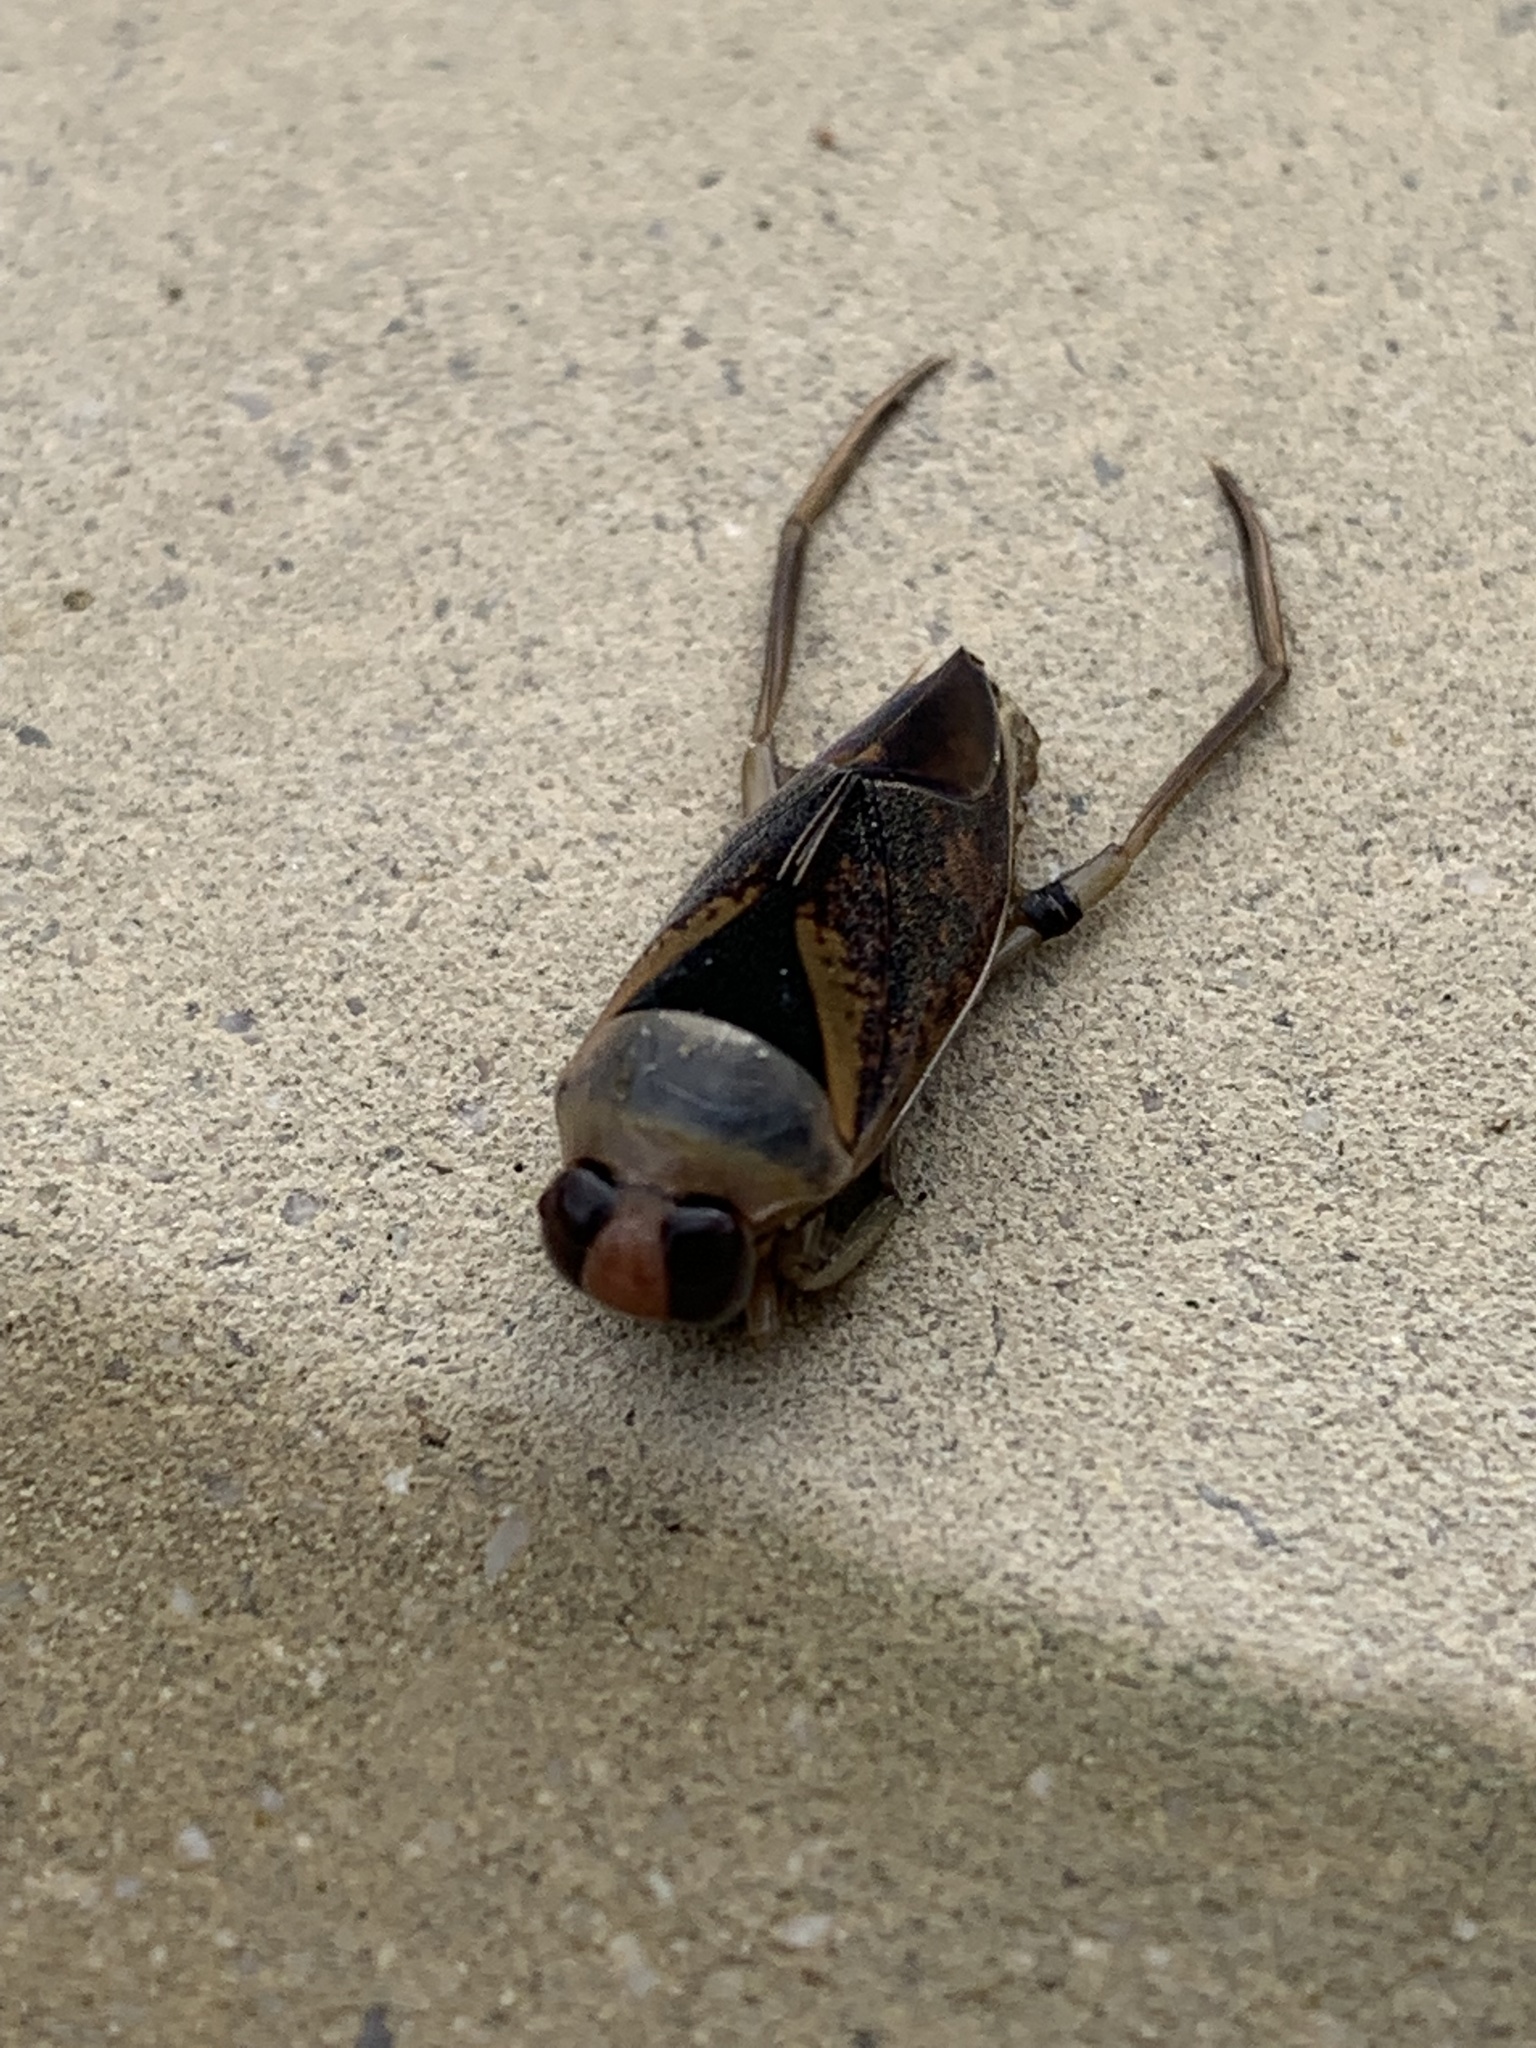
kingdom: Animalia
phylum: Arthropoda
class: Insecta
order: Hemiptera
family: Notonectidae
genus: Notonecta
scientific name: Notonecta maculata
